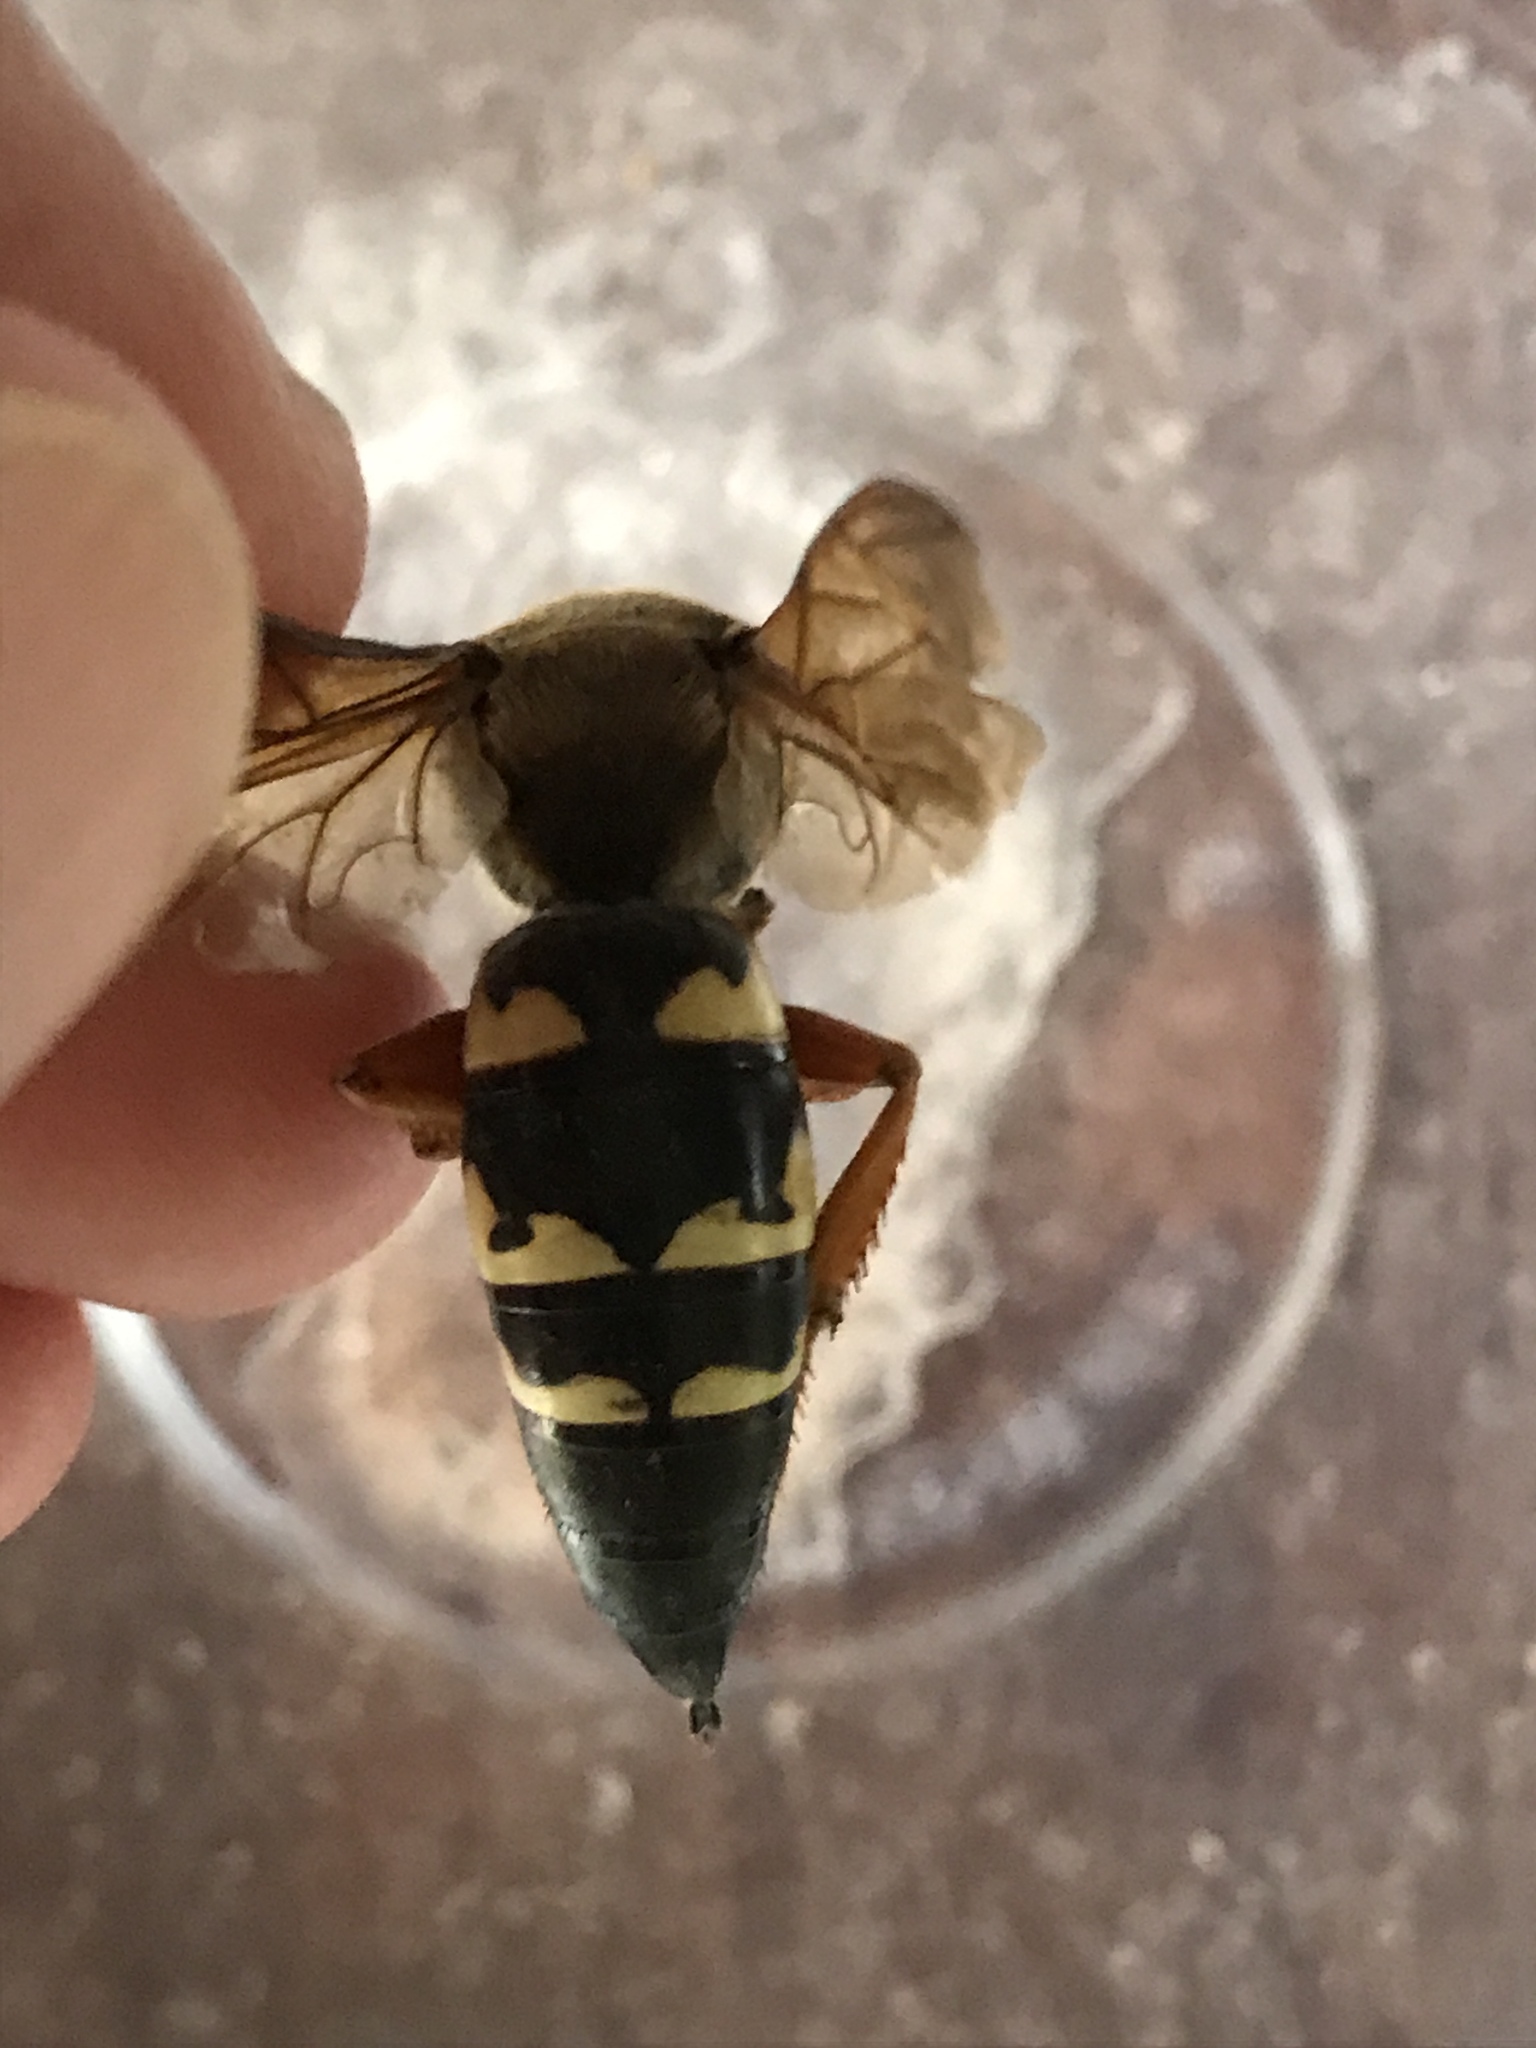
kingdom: Animalia
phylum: Arthropoda
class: Insecta
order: Hymenoptera
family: Crabronidae
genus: Sphecius
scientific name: Sphecius speciosus
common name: Cicada killer
